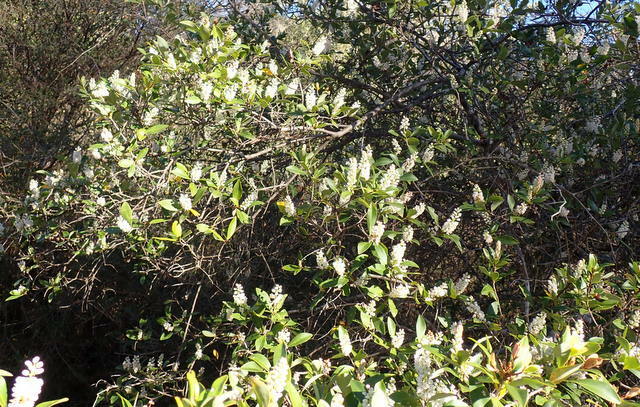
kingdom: Plantae
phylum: Tracheophyta
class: Magnoliopsida
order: Ericales
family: Cyrillaceae
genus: Cliftonia
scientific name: Cliftonia monophylla
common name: Titi
